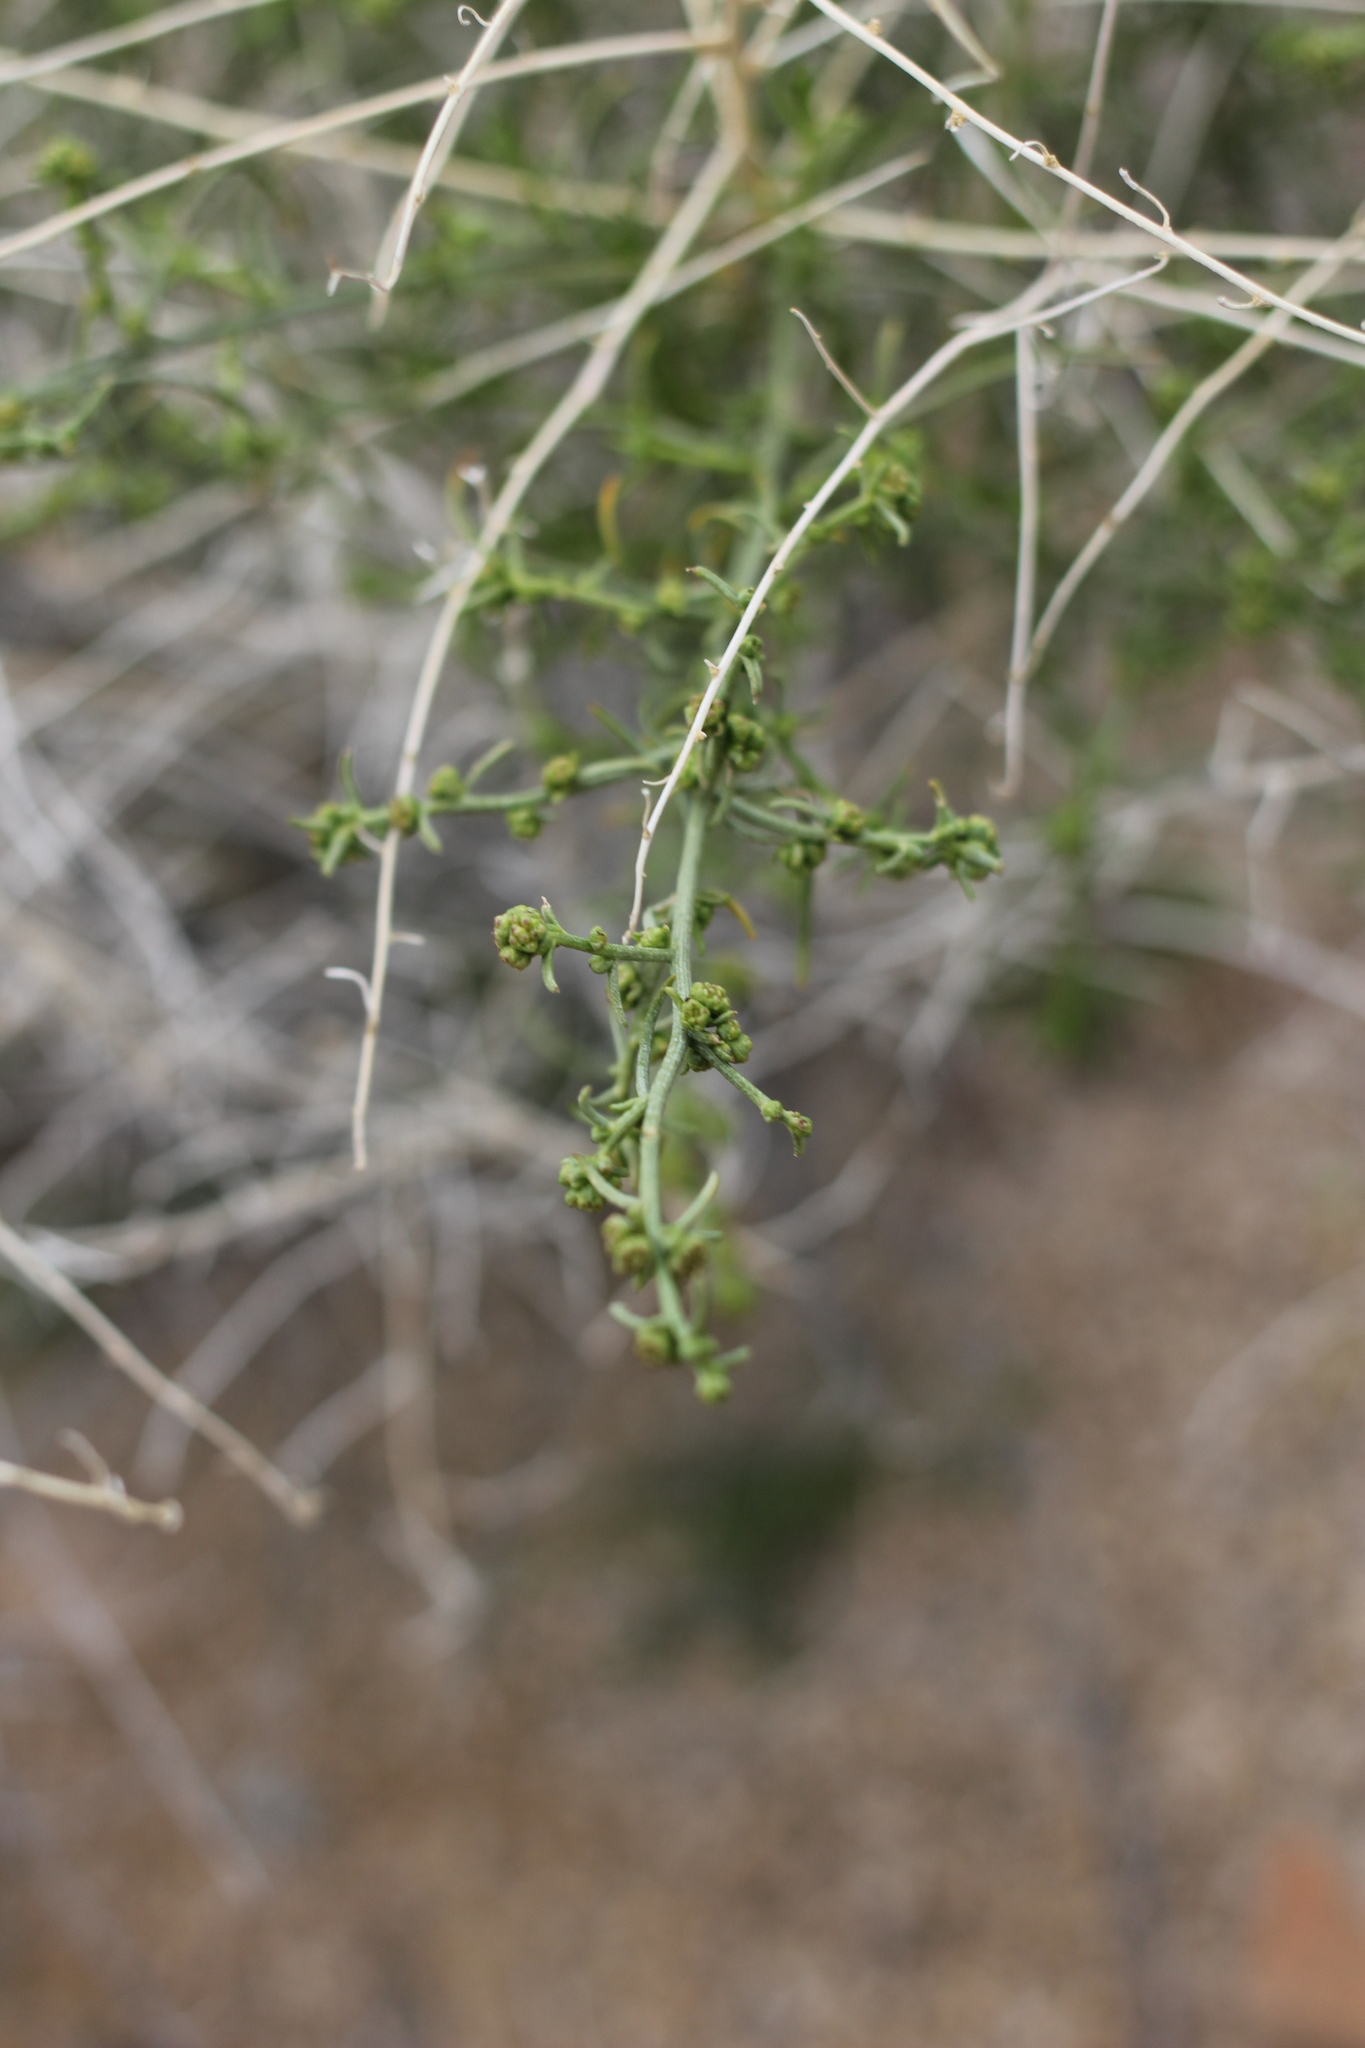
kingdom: Plantae
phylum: Tracheophyta
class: Magnoliopsida
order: Asterales
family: Asteraceae
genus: Ambrosia
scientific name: Ambrosia salsola
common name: Burrobrush
